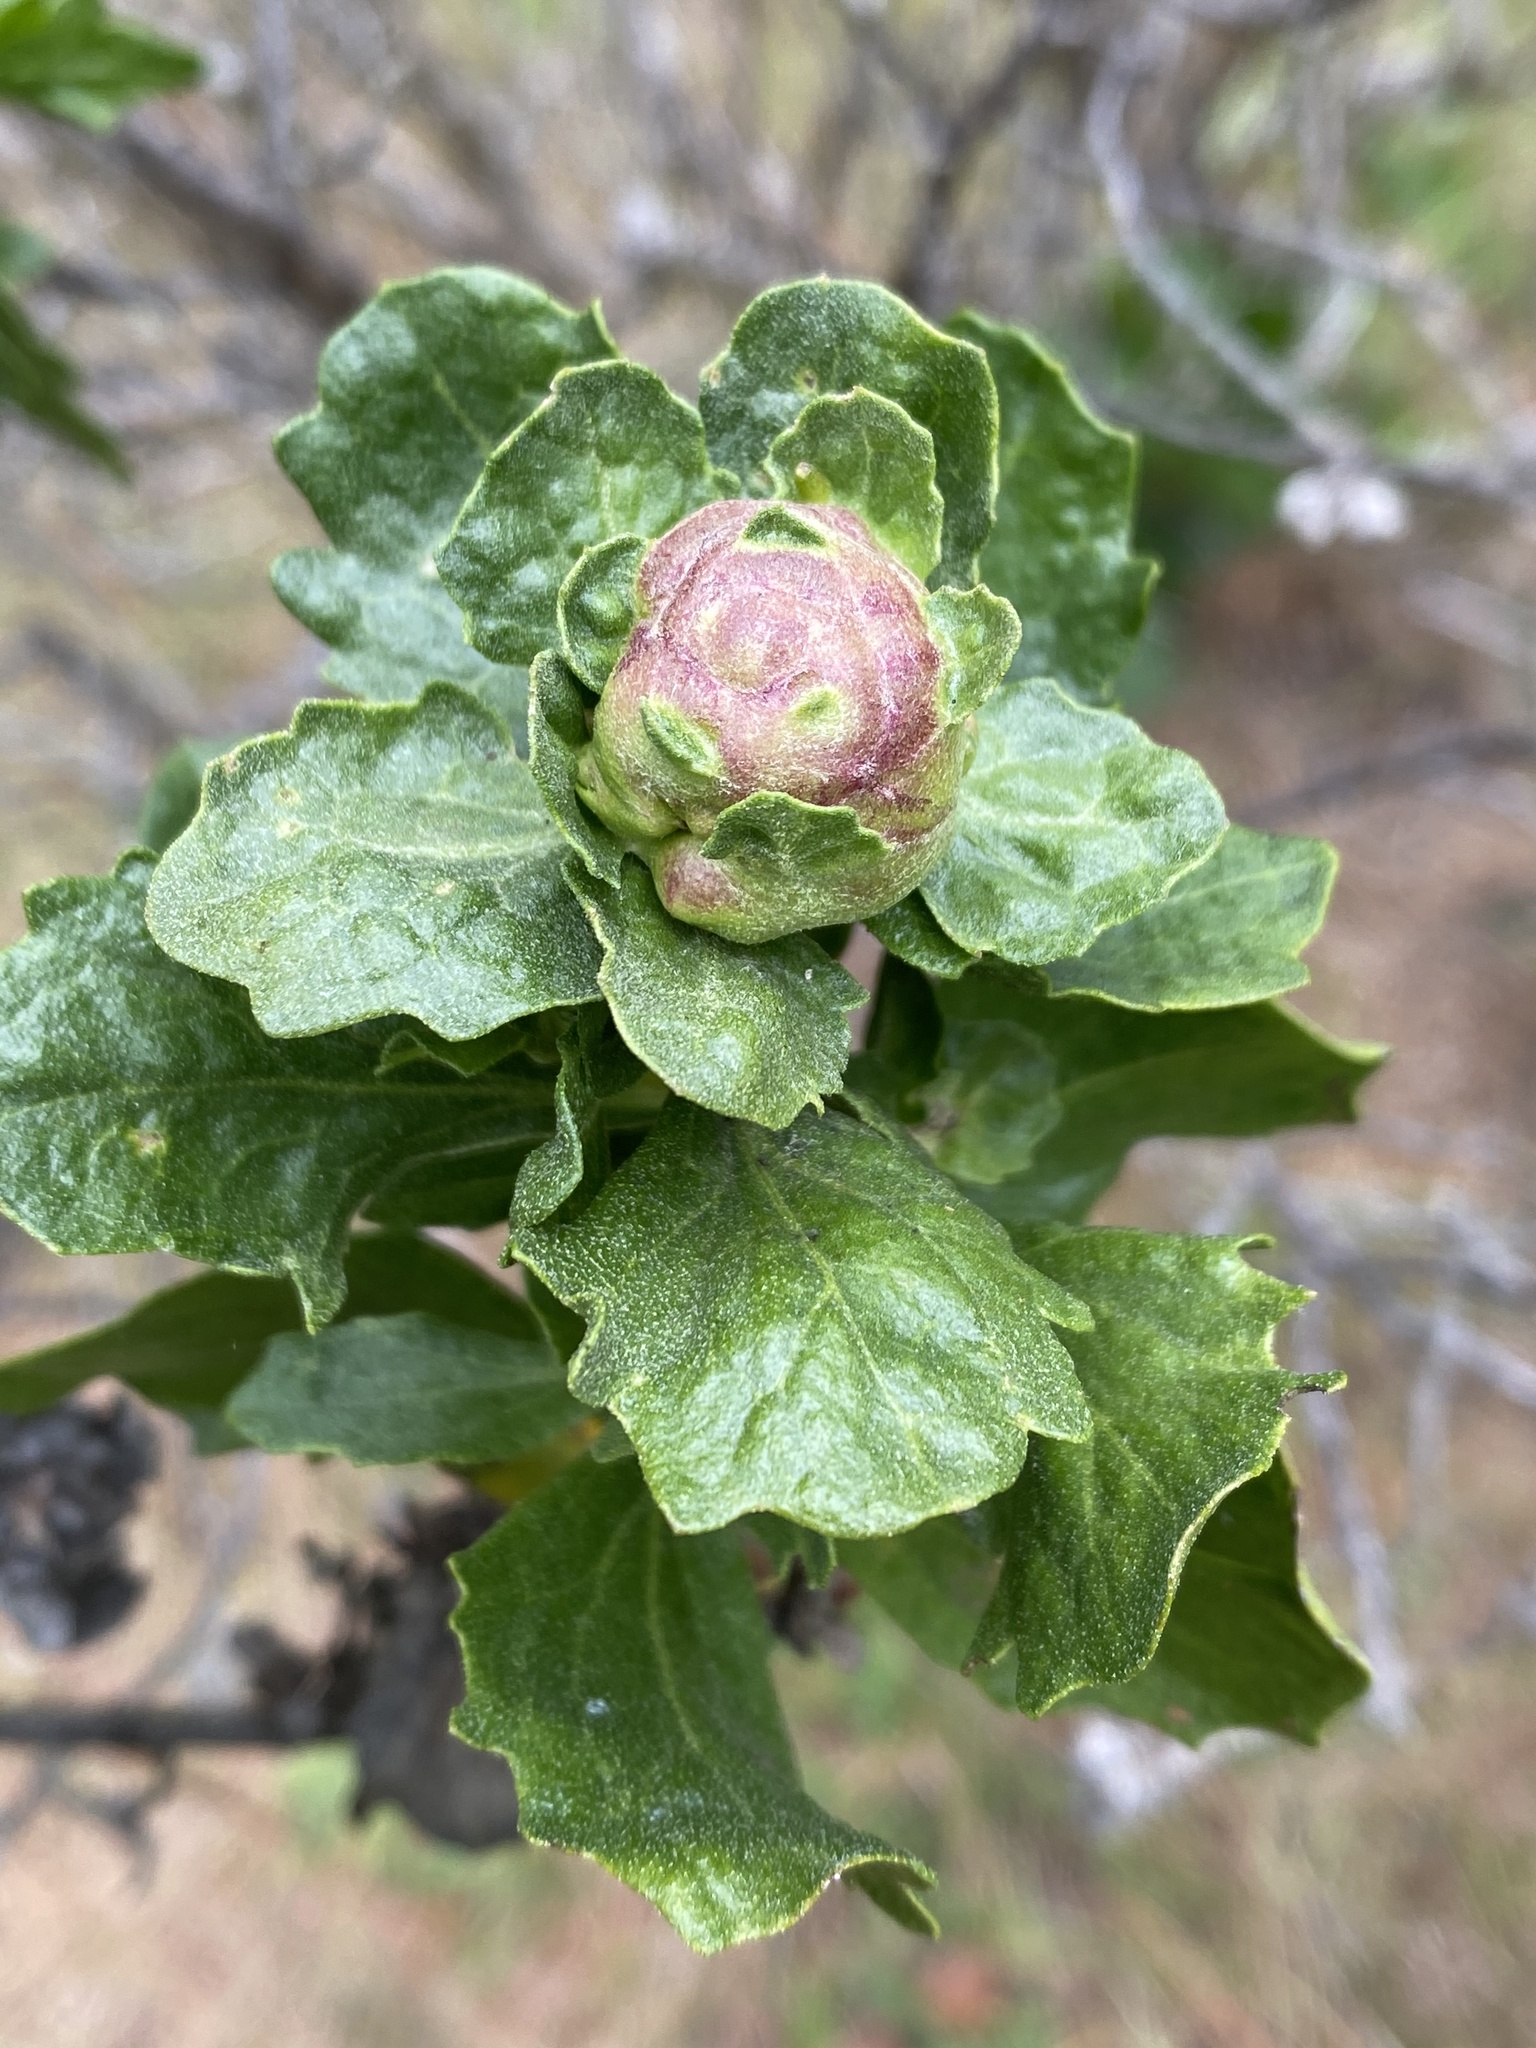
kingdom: Animalia
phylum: Arthropoda
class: Insecta
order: Diptera
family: Cecidomyiidae
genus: Rhopalomyia
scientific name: Rhopalomyia californica
